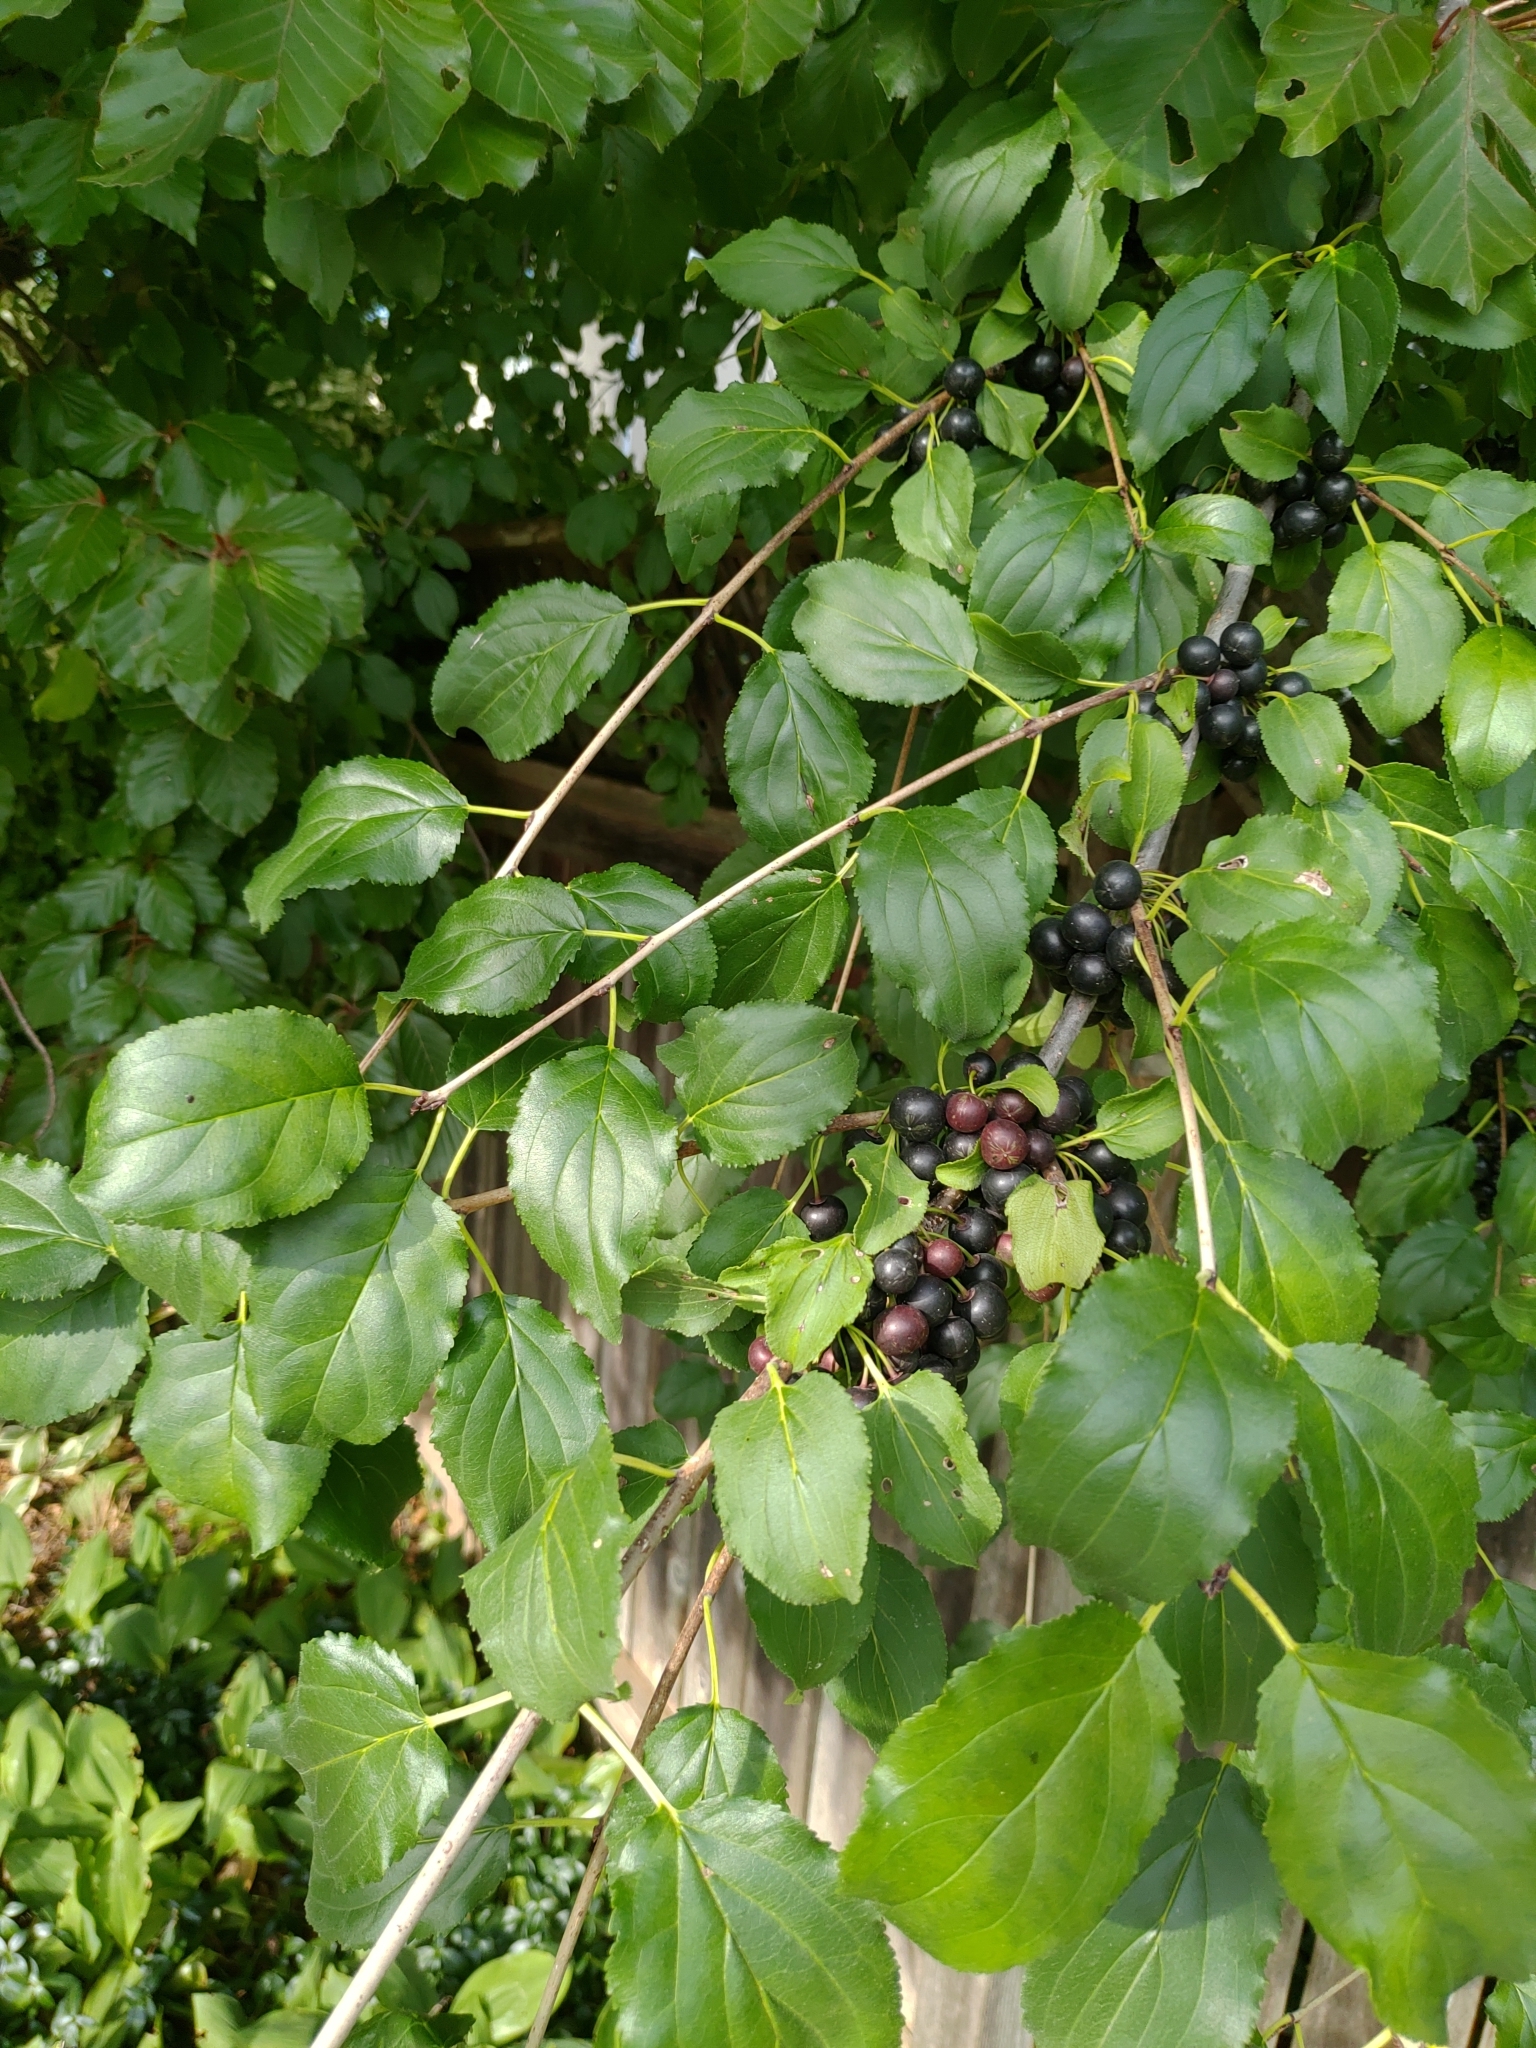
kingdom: Plantae
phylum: Tracheophyta
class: Magnoliopsida
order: Rosales
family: Rhamnaceae
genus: Rhamnus
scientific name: Rhamnus cathartica
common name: Common buckthorn
